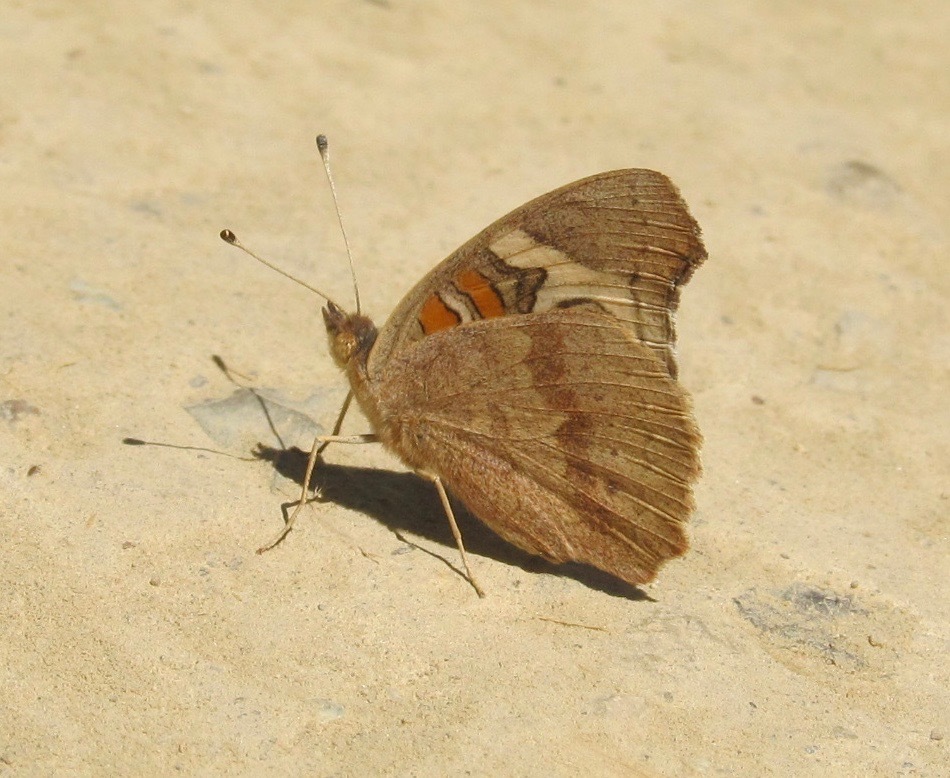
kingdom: Animalia
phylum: Arthropoda
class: Insecta
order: Lepidoptera
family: Nymphalidae
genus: Junonia
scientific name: Junonia grisea
